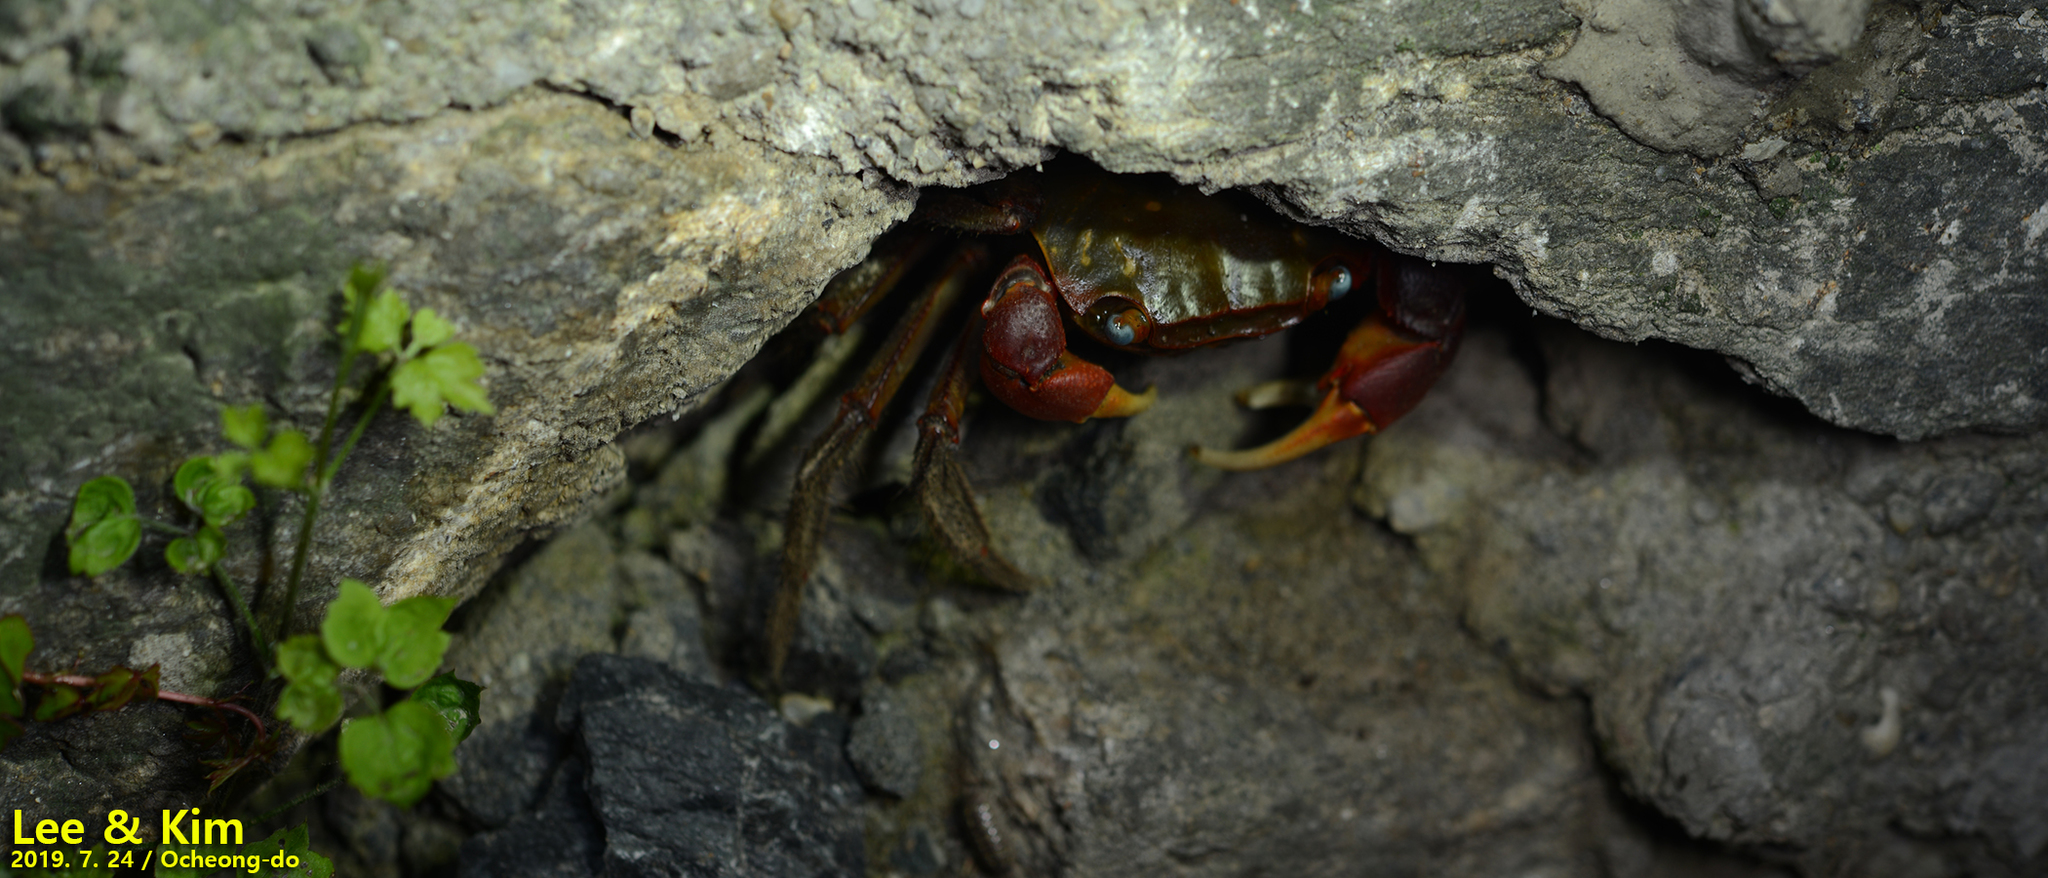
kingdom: Animalia
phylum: Arthropoda
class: Malacostraca
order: Decapoda
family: Sesarmidae
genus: Chiromantes
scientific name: Chiromantes haematocheir
